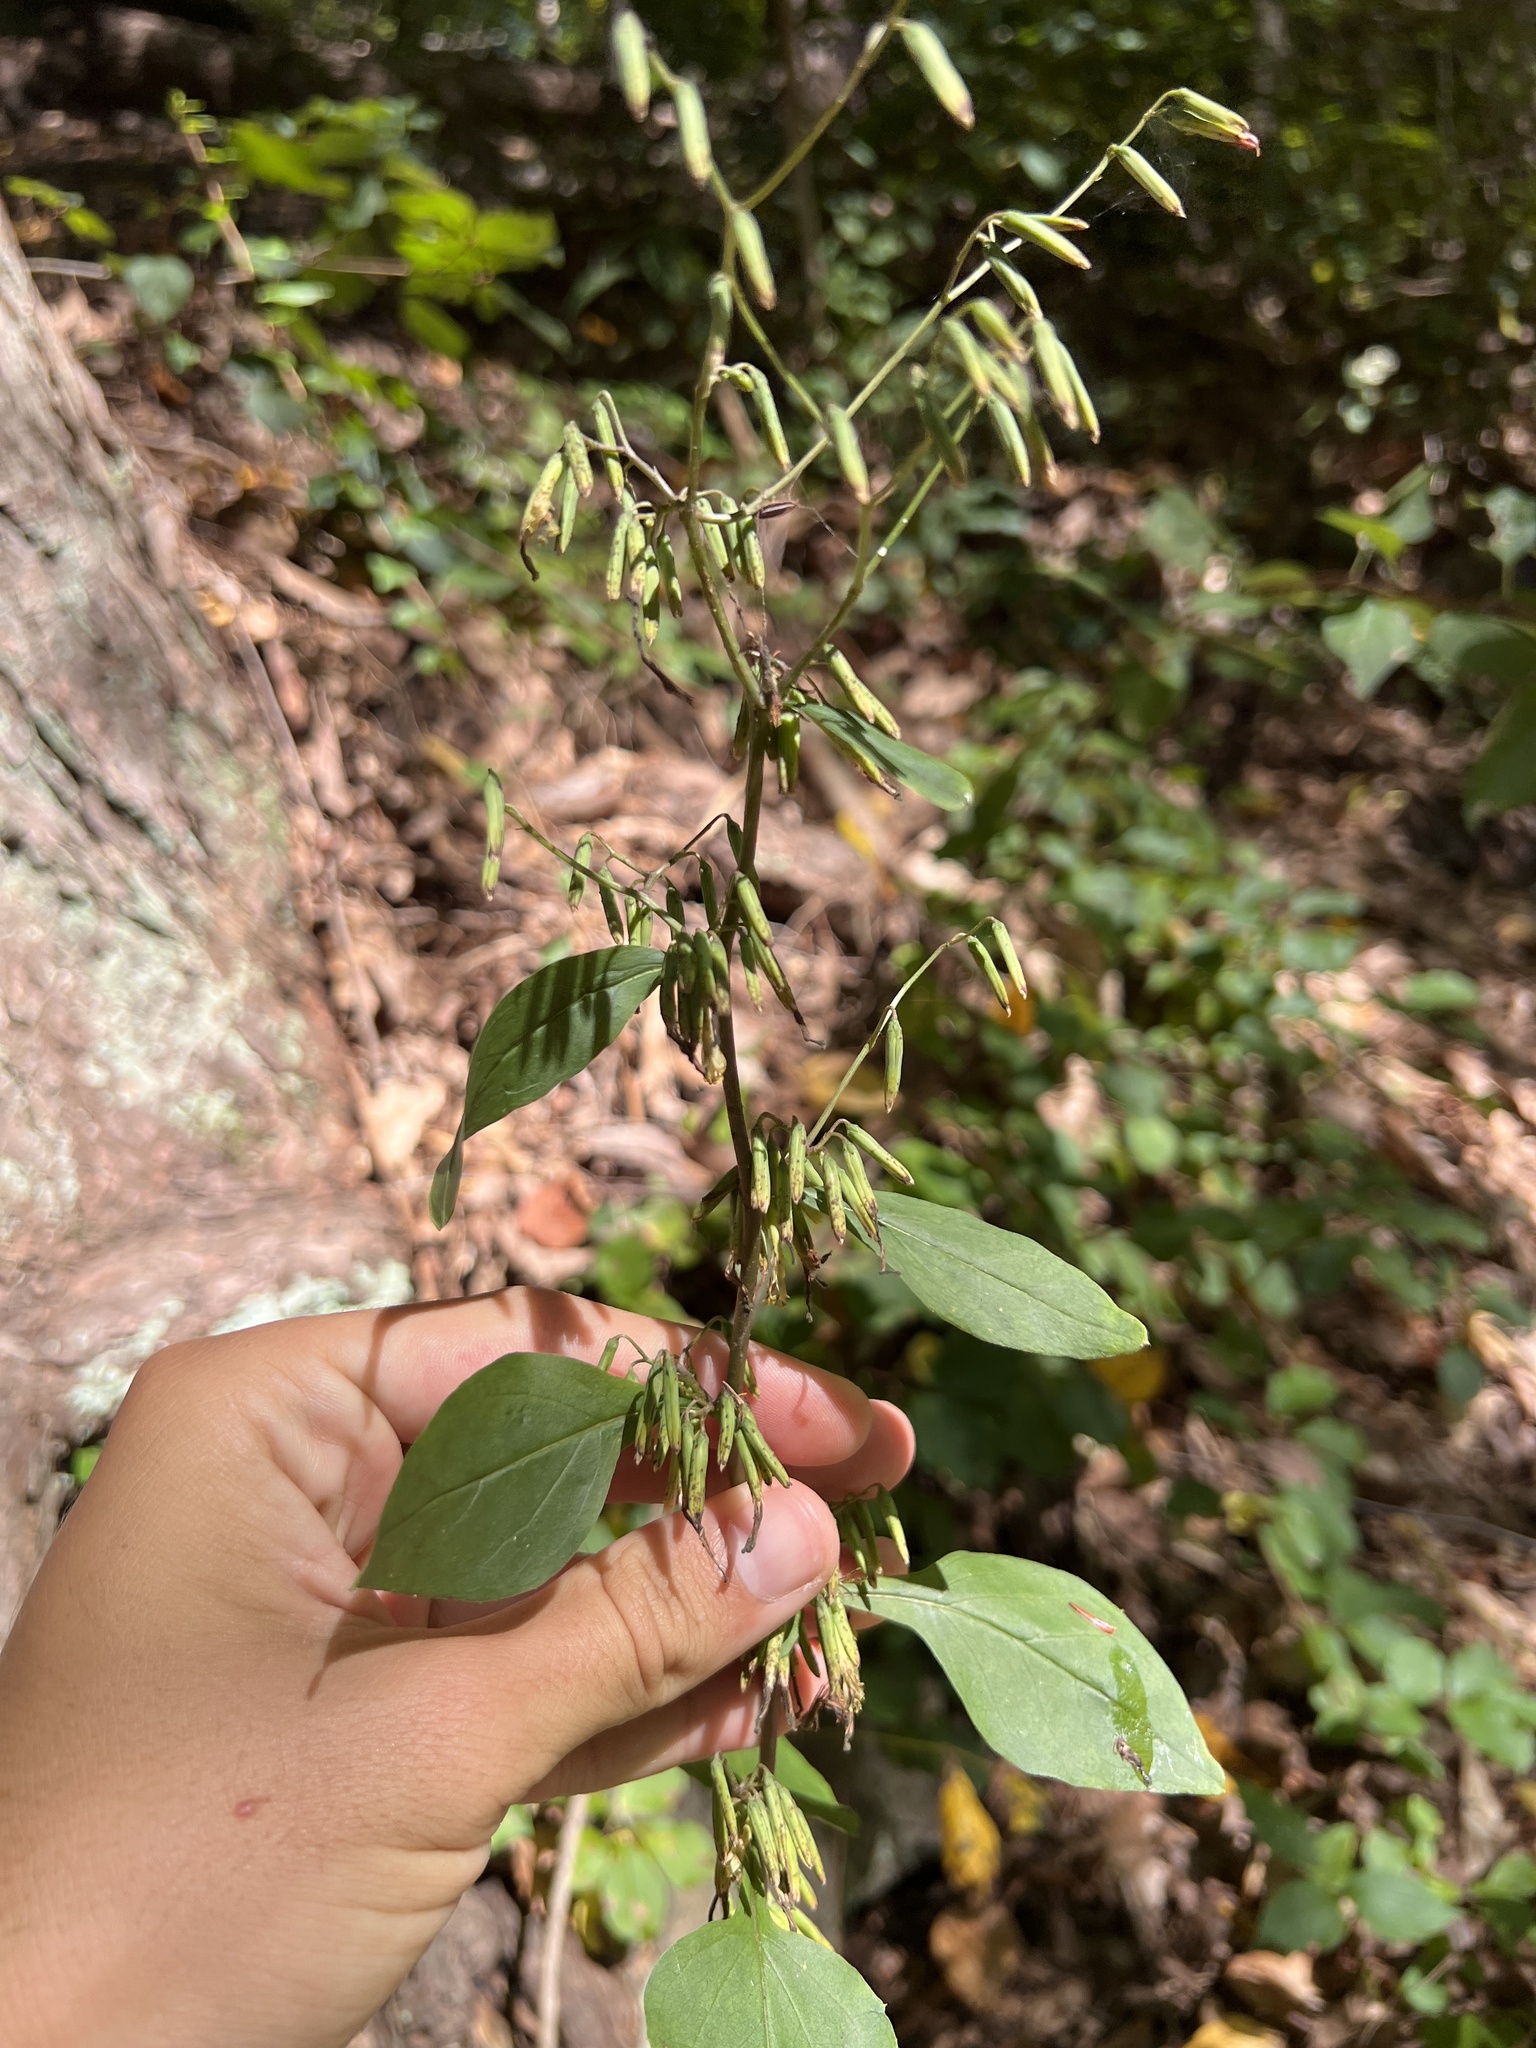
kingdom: Plantae
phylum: Tracheophyta
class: Magnoliopsida
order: Asterales
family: Asteraceae
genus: Nabalus
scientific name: Nabalus altissima
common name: Tall rattlesnakeroot
